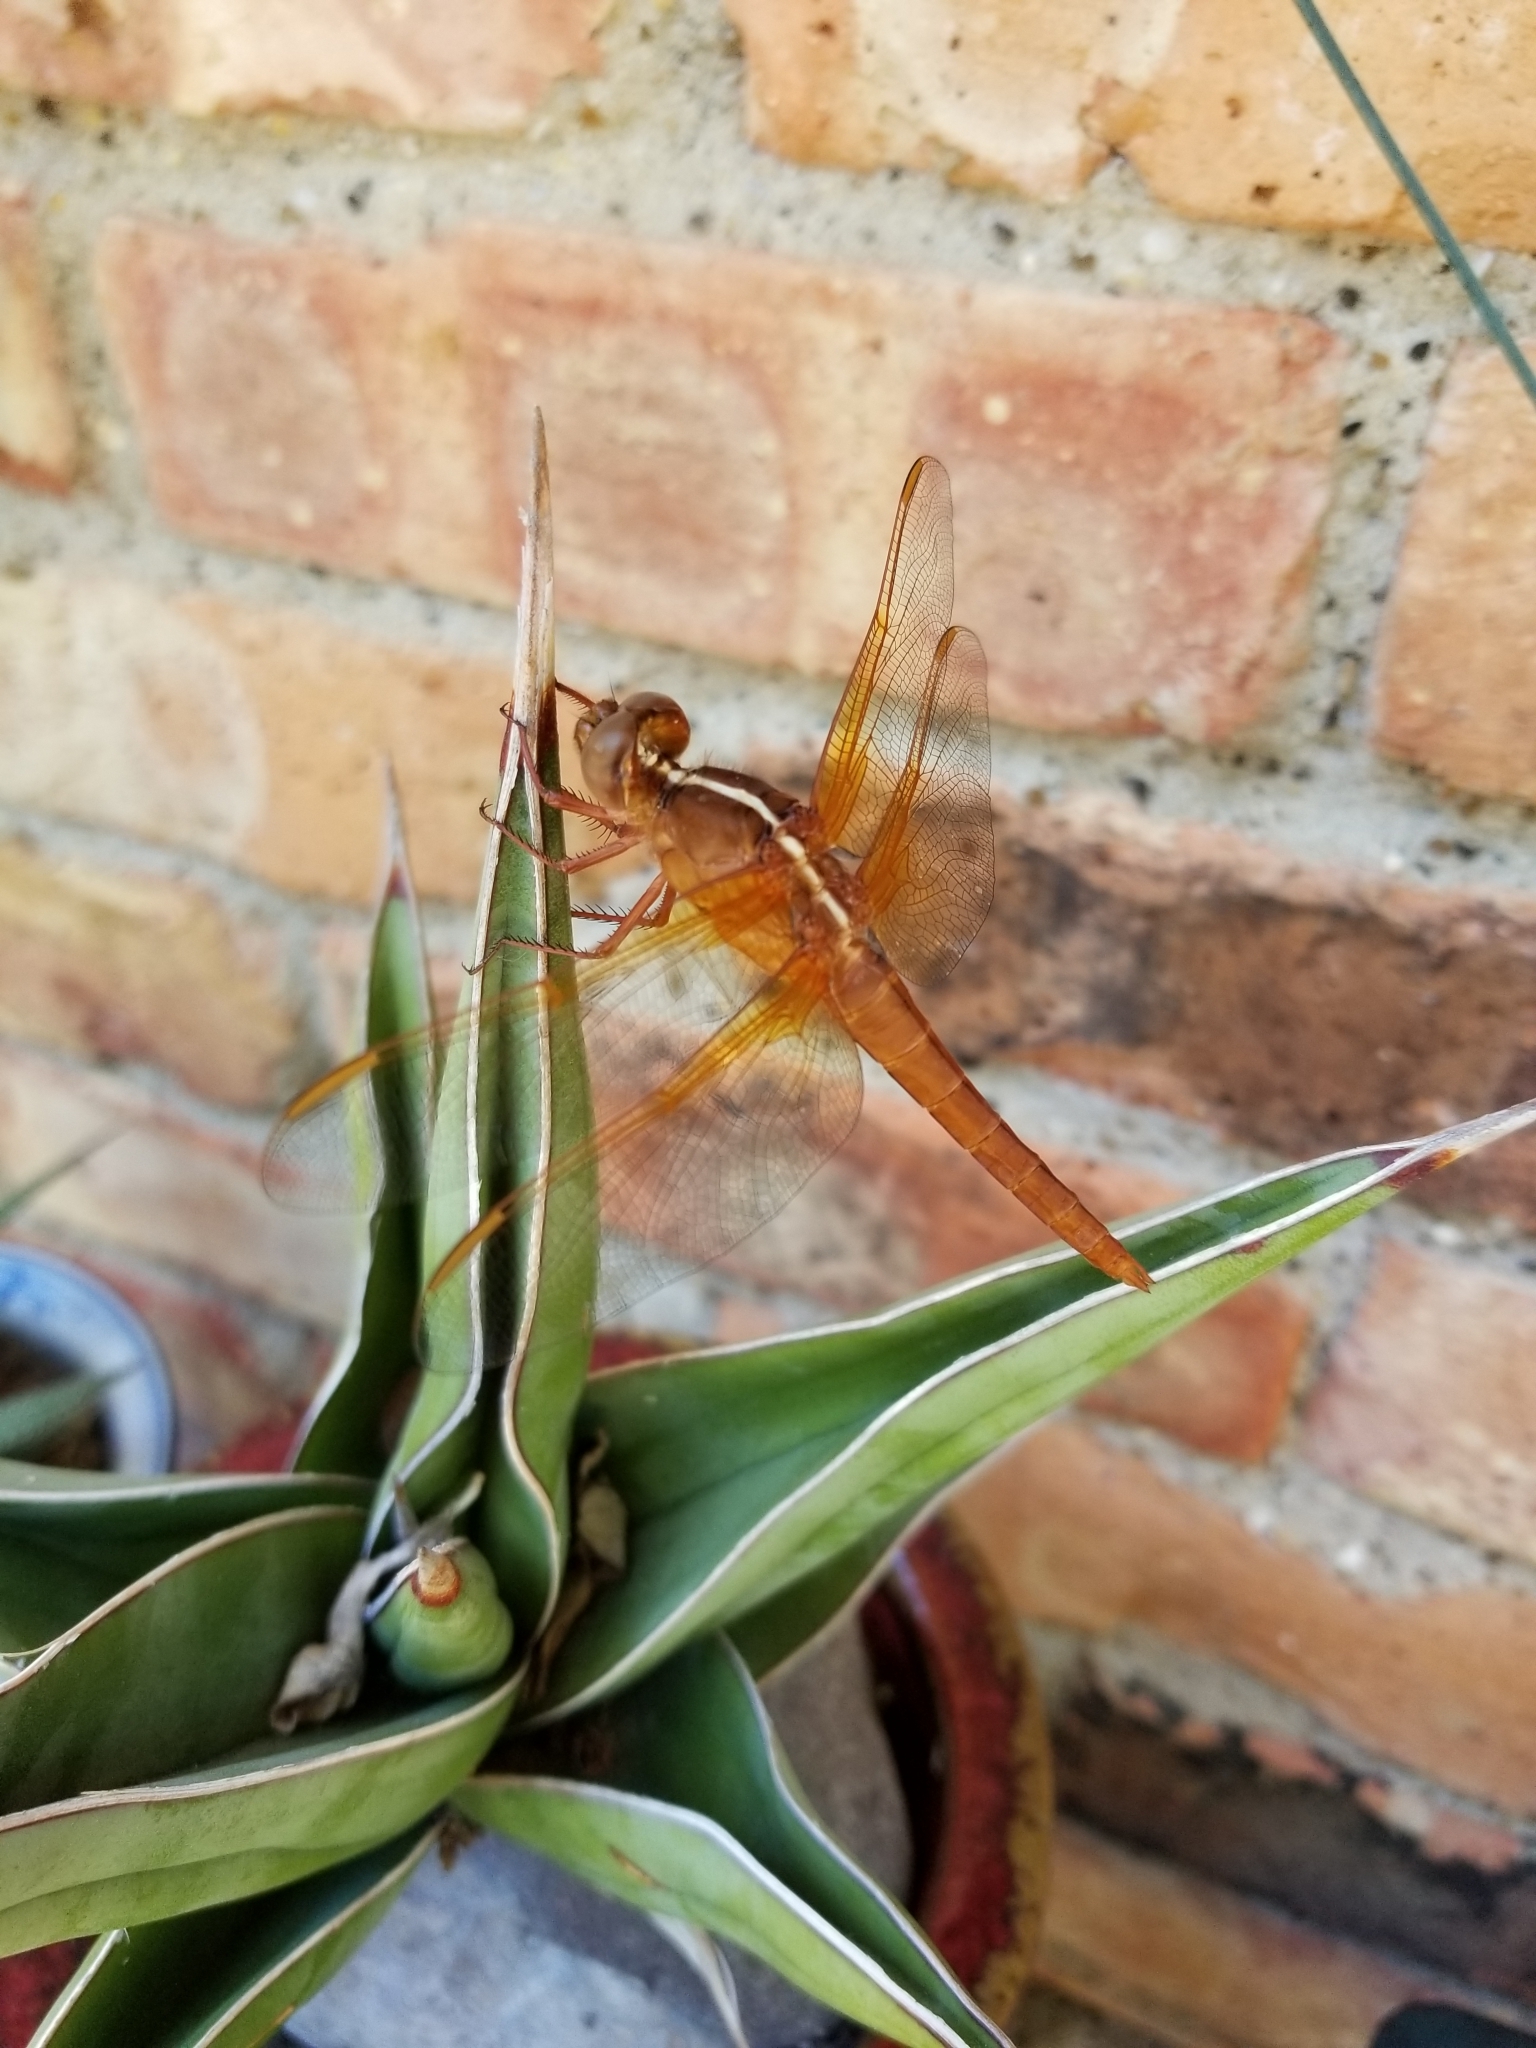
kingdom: Animalia
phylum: Arthropoda
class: Insecta
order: Odonata
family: Libellulidae
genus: Libellula
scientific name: Libellula croceipennis
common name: Neon skimmer
